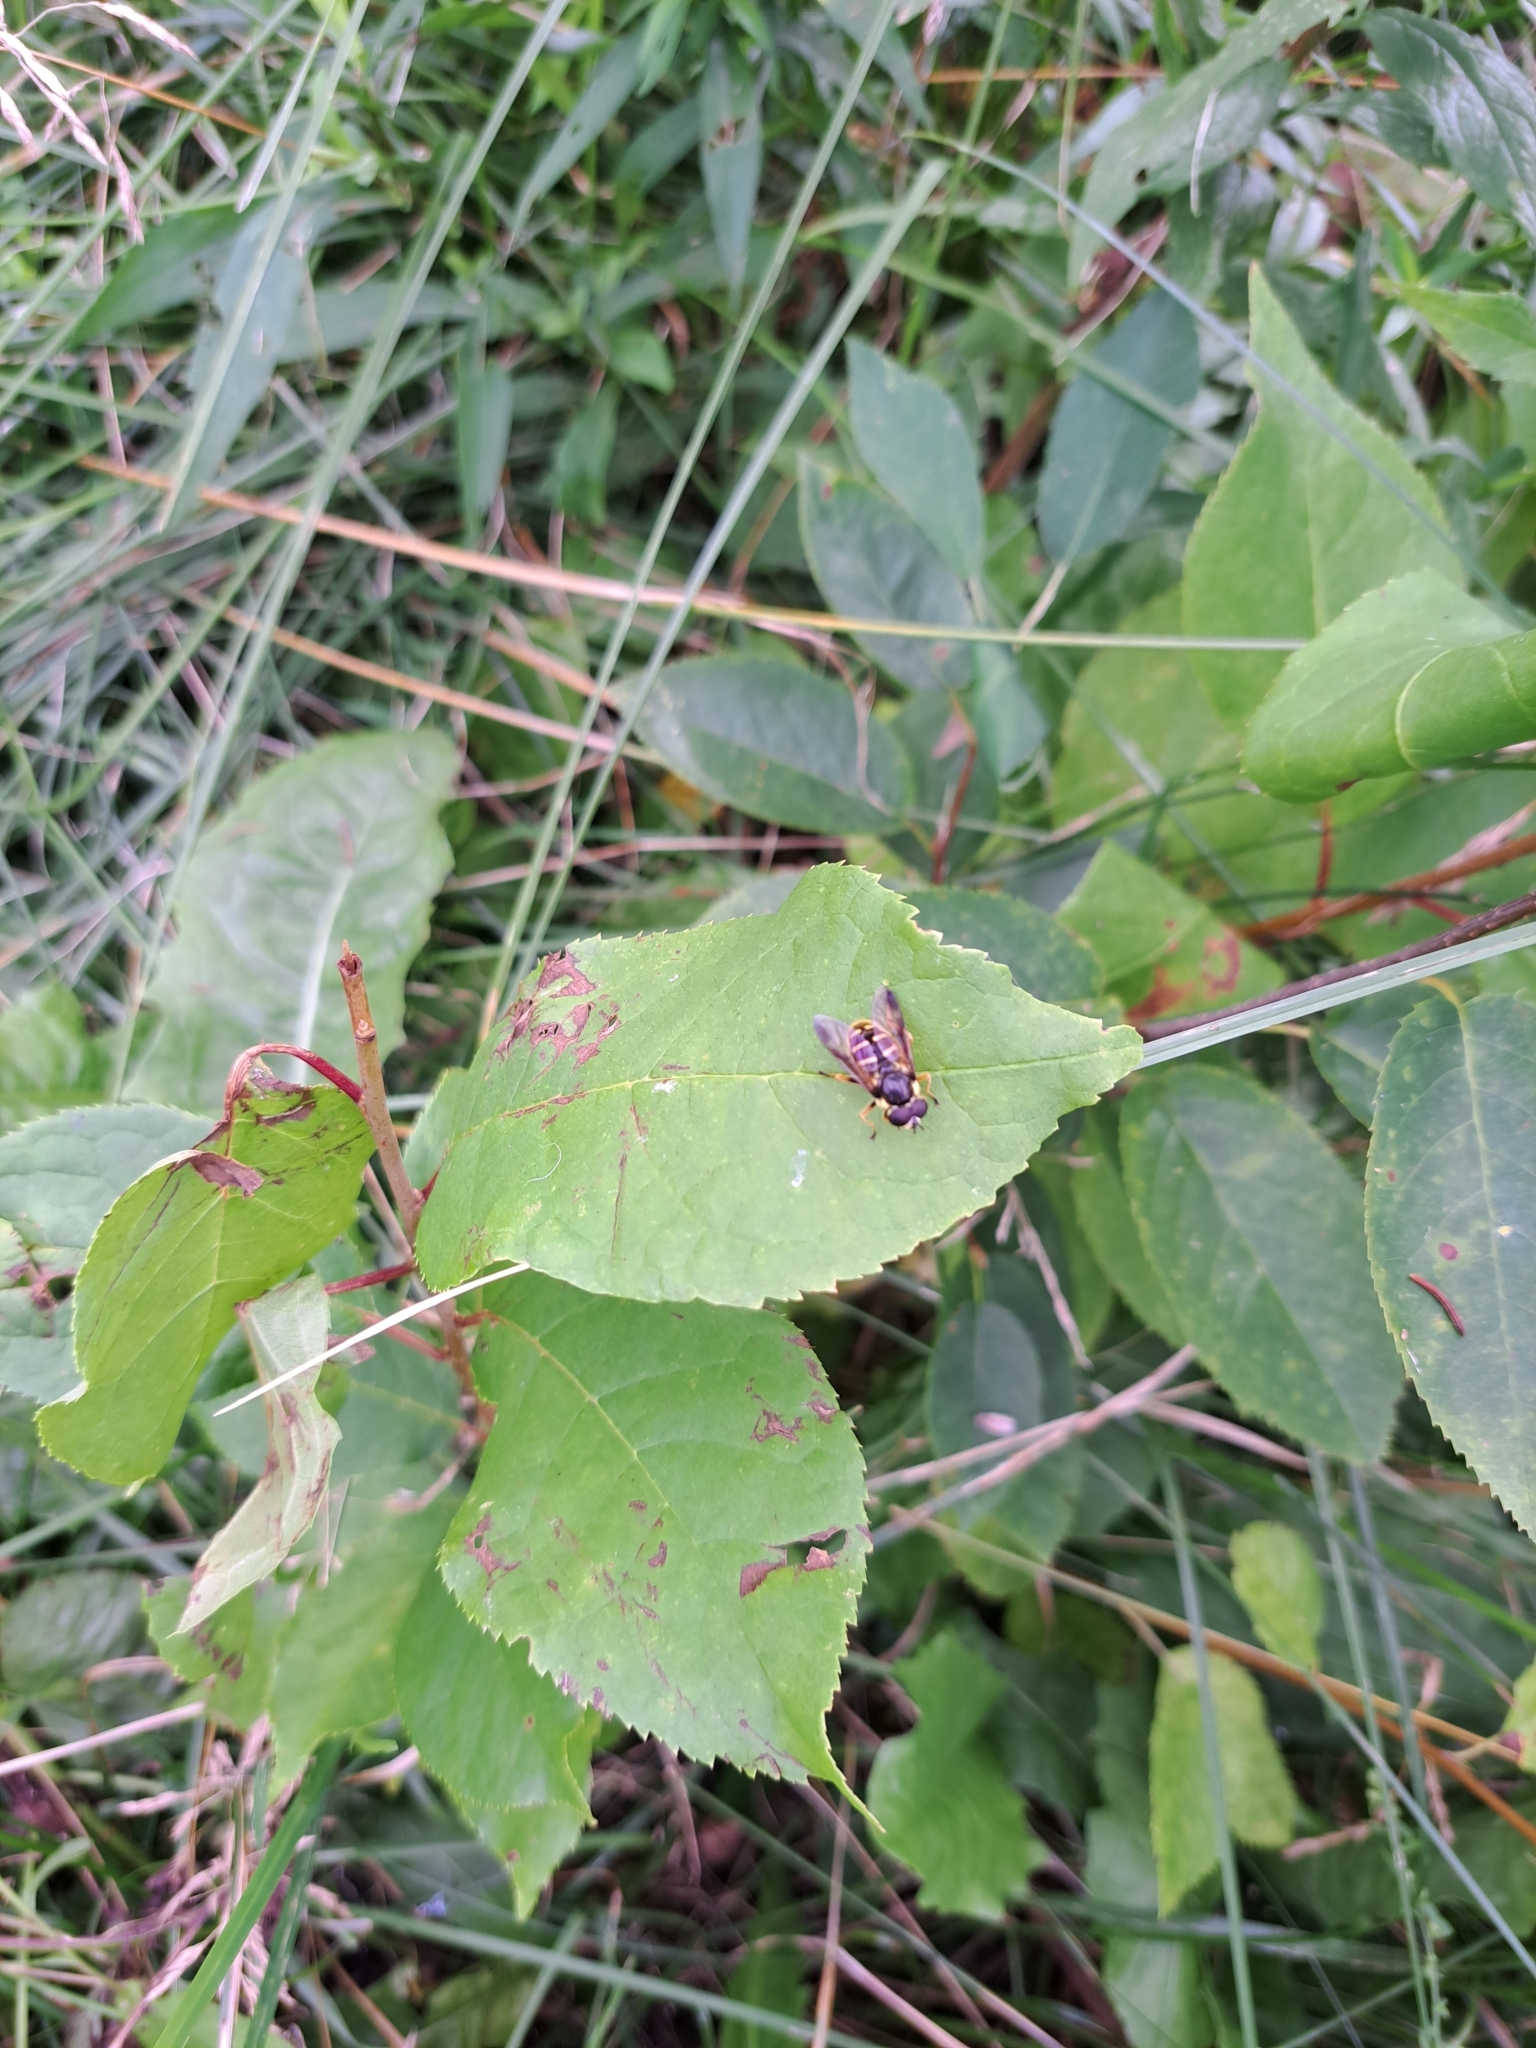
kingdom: Animalia
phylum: Arthropoda
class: Insecta
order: Diptera
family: Syrphidae
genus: Sericomyia
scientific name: Sericomyia chrysotoxoides
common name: Oblique-banded pond fly
